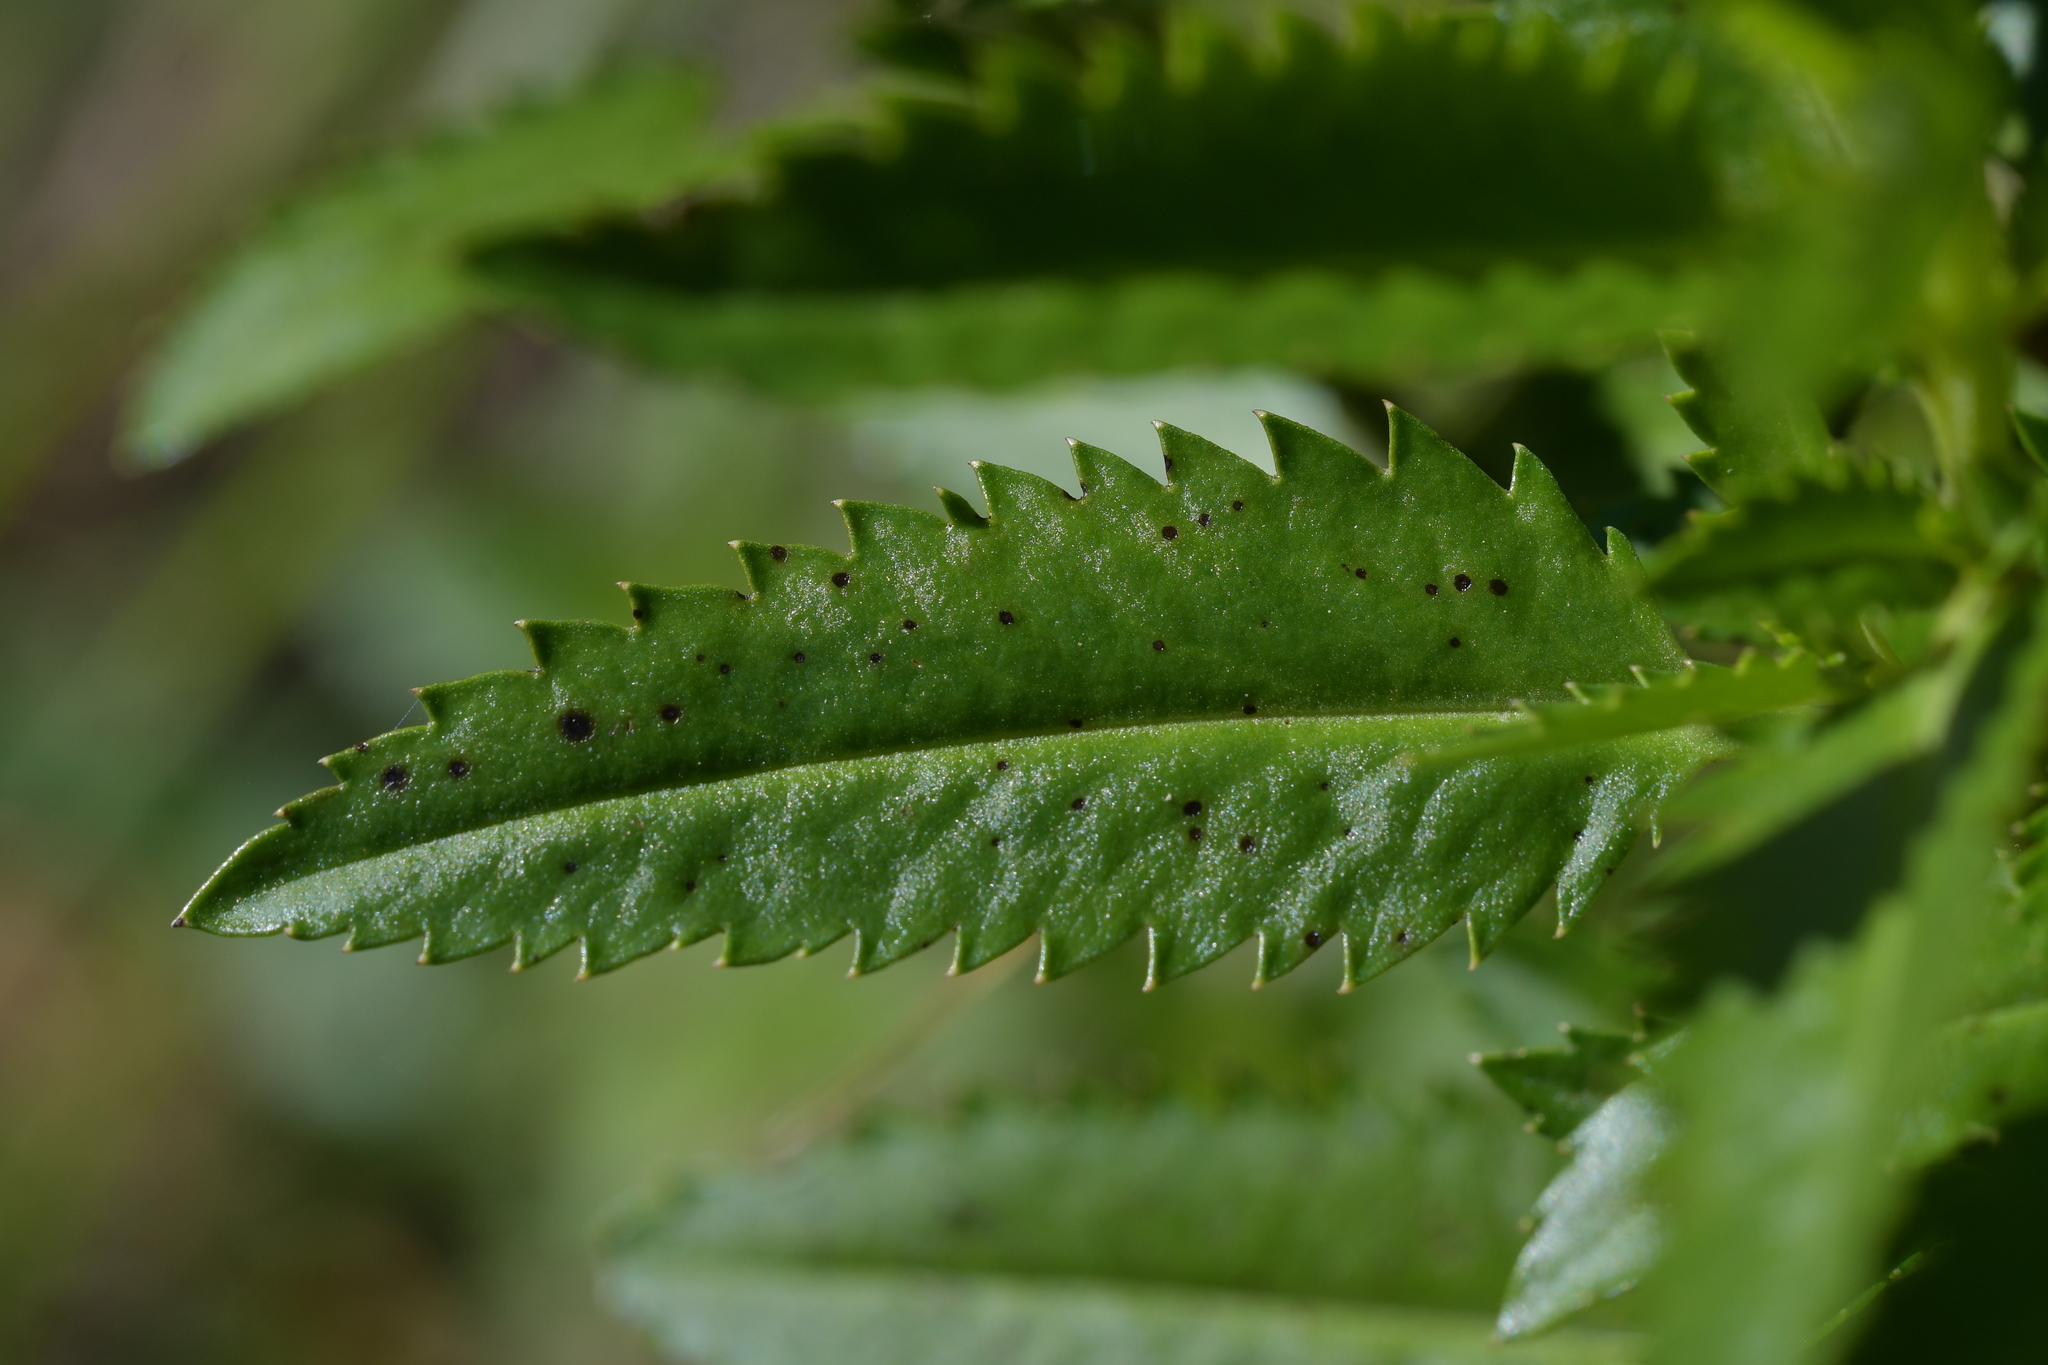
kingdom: Plantae
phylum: Tracheophyta
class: Magnoliopsida
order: Saxifragales
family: Haloragaceae
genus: Haloragis
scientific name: Haloragis erecta
